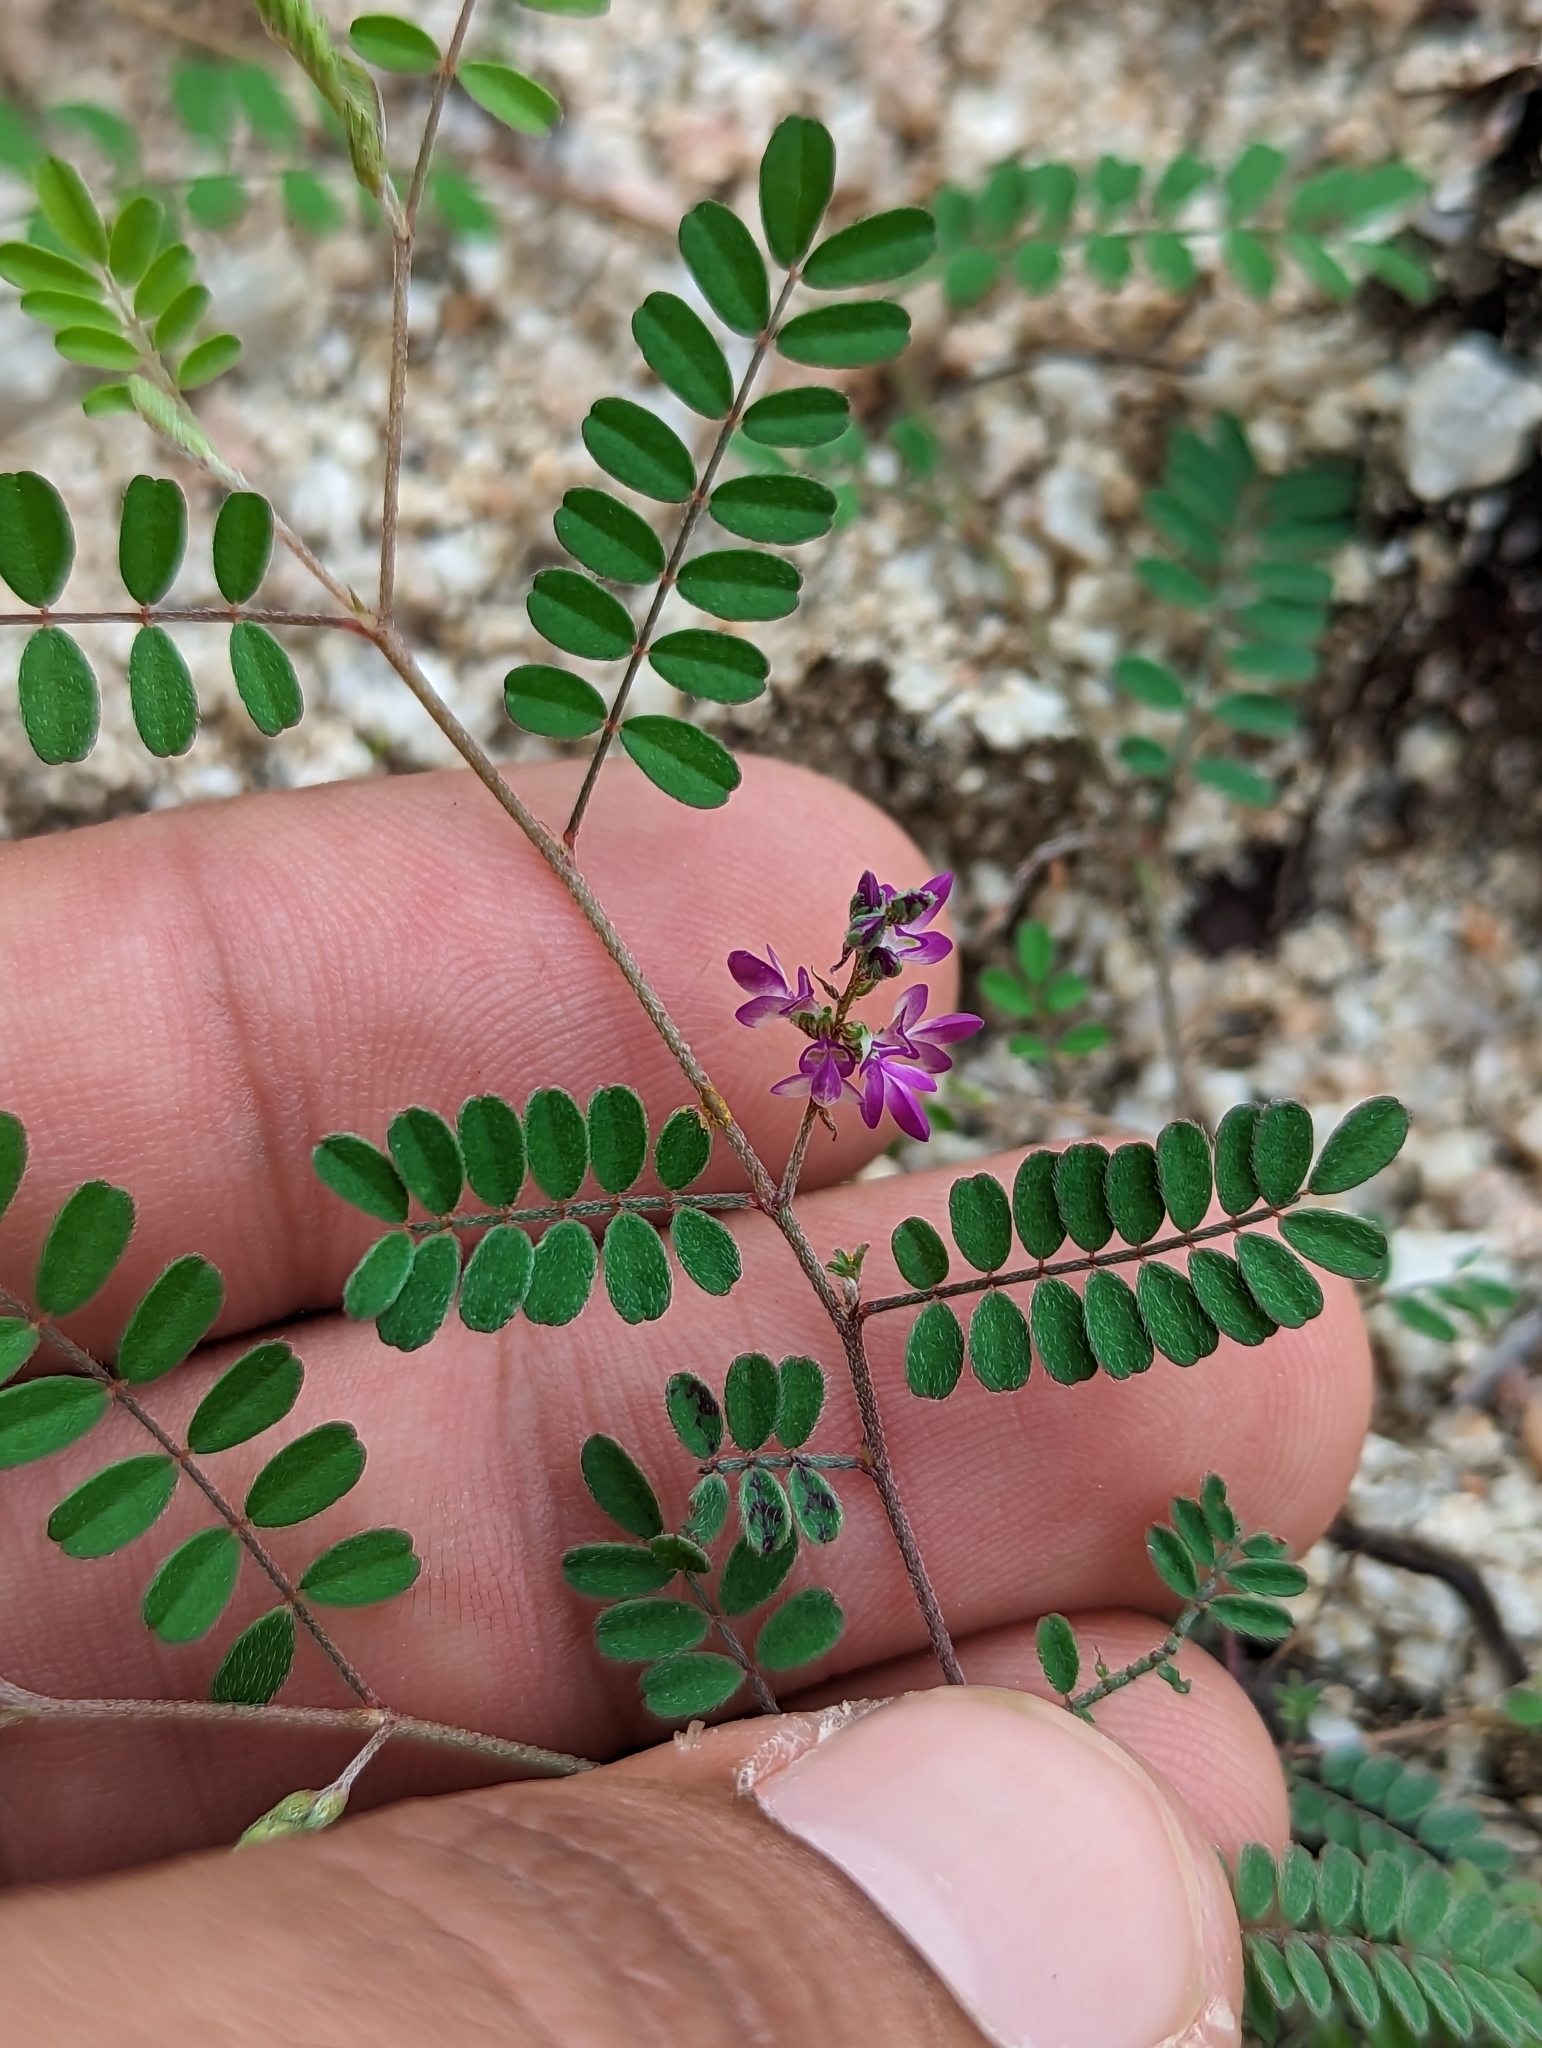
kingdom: Plantae
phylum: Tracheophyta
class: Magnoliopsida
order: Fabales
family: Fabaceae
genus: Marina
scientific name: Marina interstes
